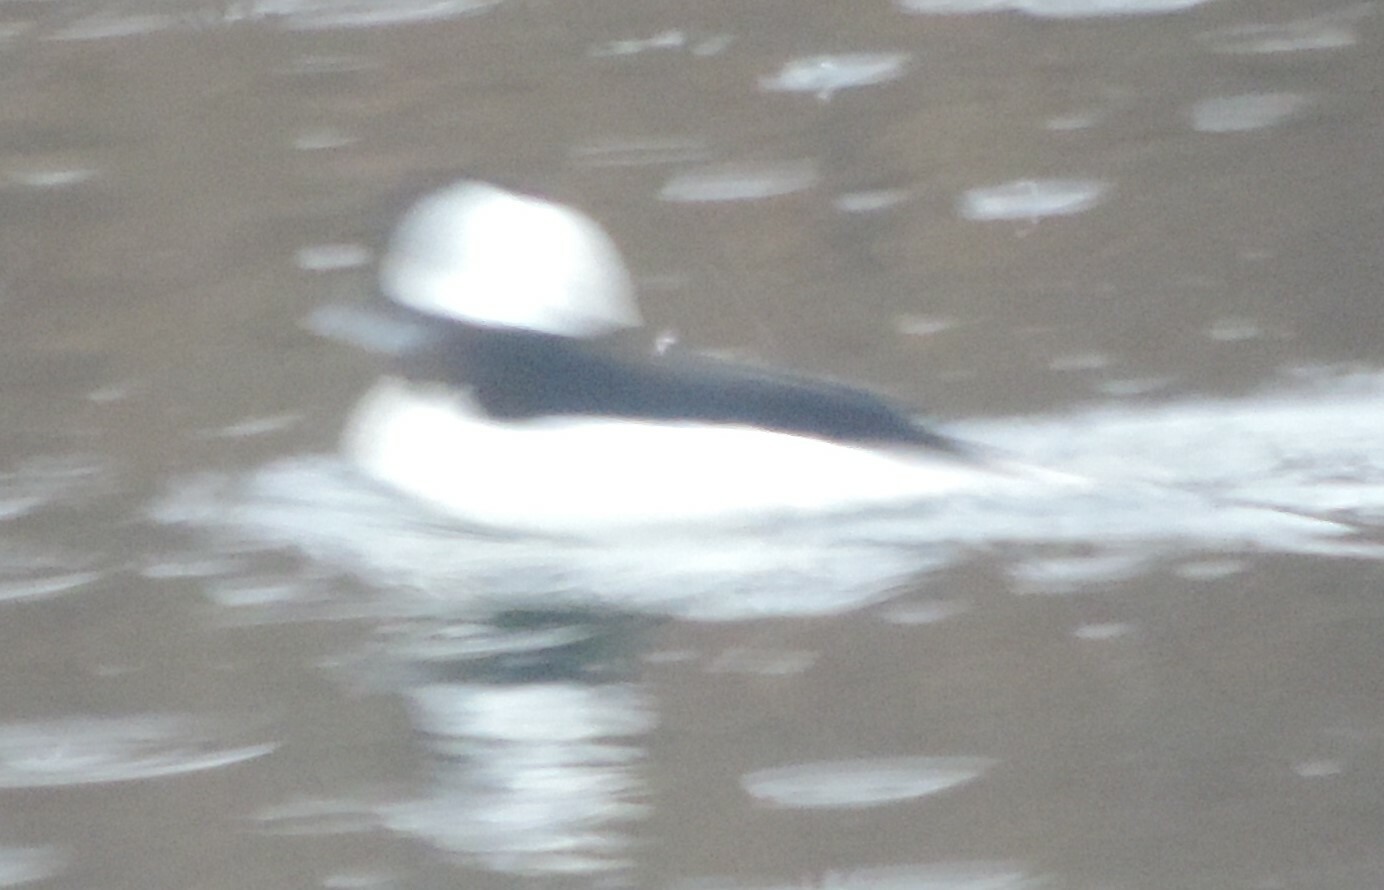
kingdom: Animalia
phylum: Chordata
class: Aves
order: Anseriformes
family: Anatidae
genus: Bucephala
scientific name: Bucephala albeola
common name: Bufflehead
